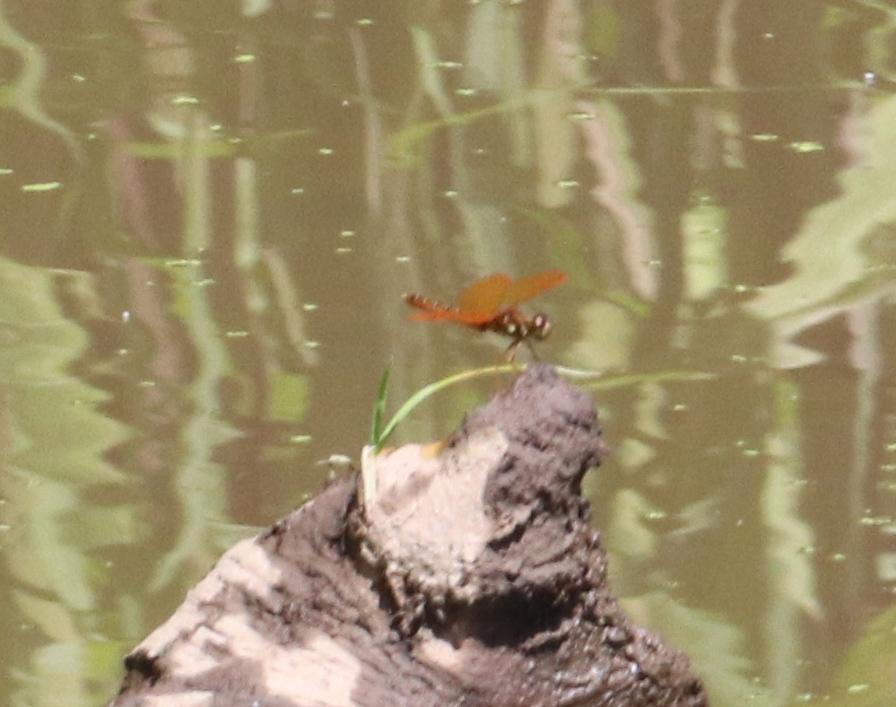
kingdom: Animalia
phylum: Arthropoda
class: Insecta
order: Odonata
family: Libellulidae
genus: Perithemis
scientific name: Perithemis tenera
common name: Eastern amberwing
